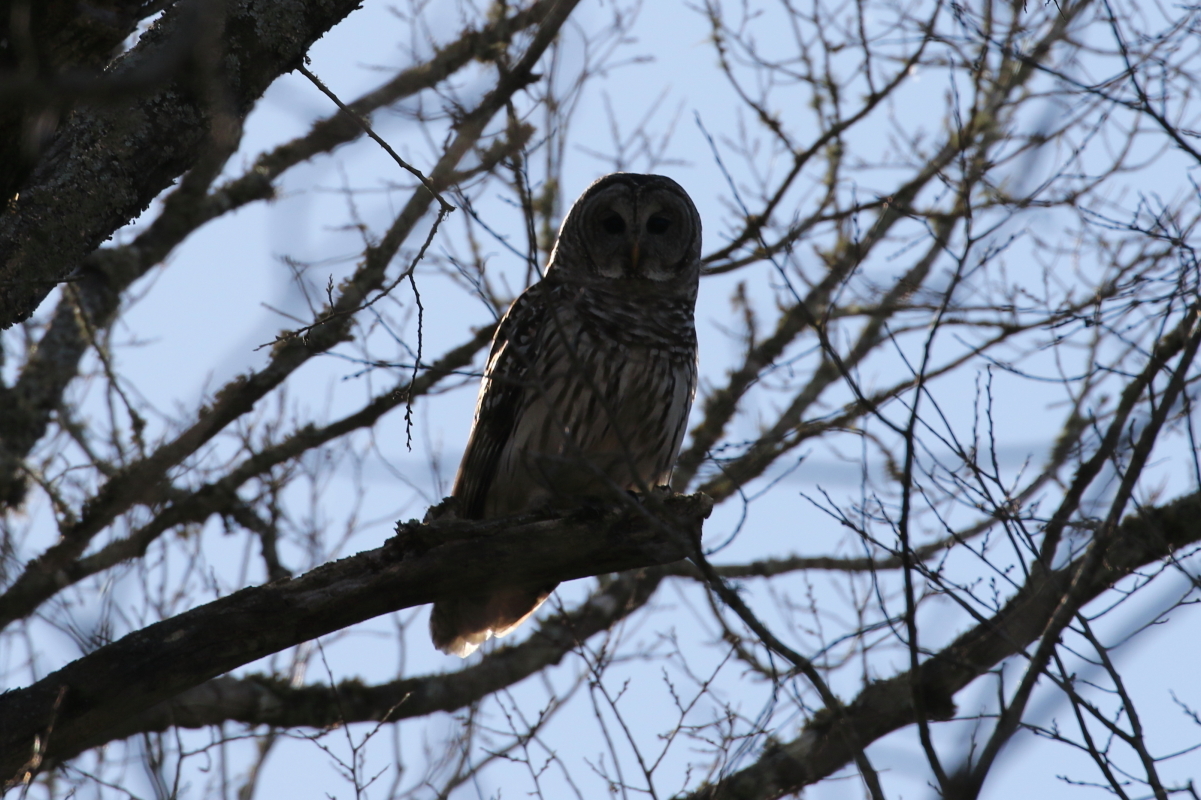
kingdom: Animalia
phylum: Chordata
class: Aves
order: Strigiformes
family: Strigidae
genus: Strix
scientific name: Strix varia
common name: Barred owl
